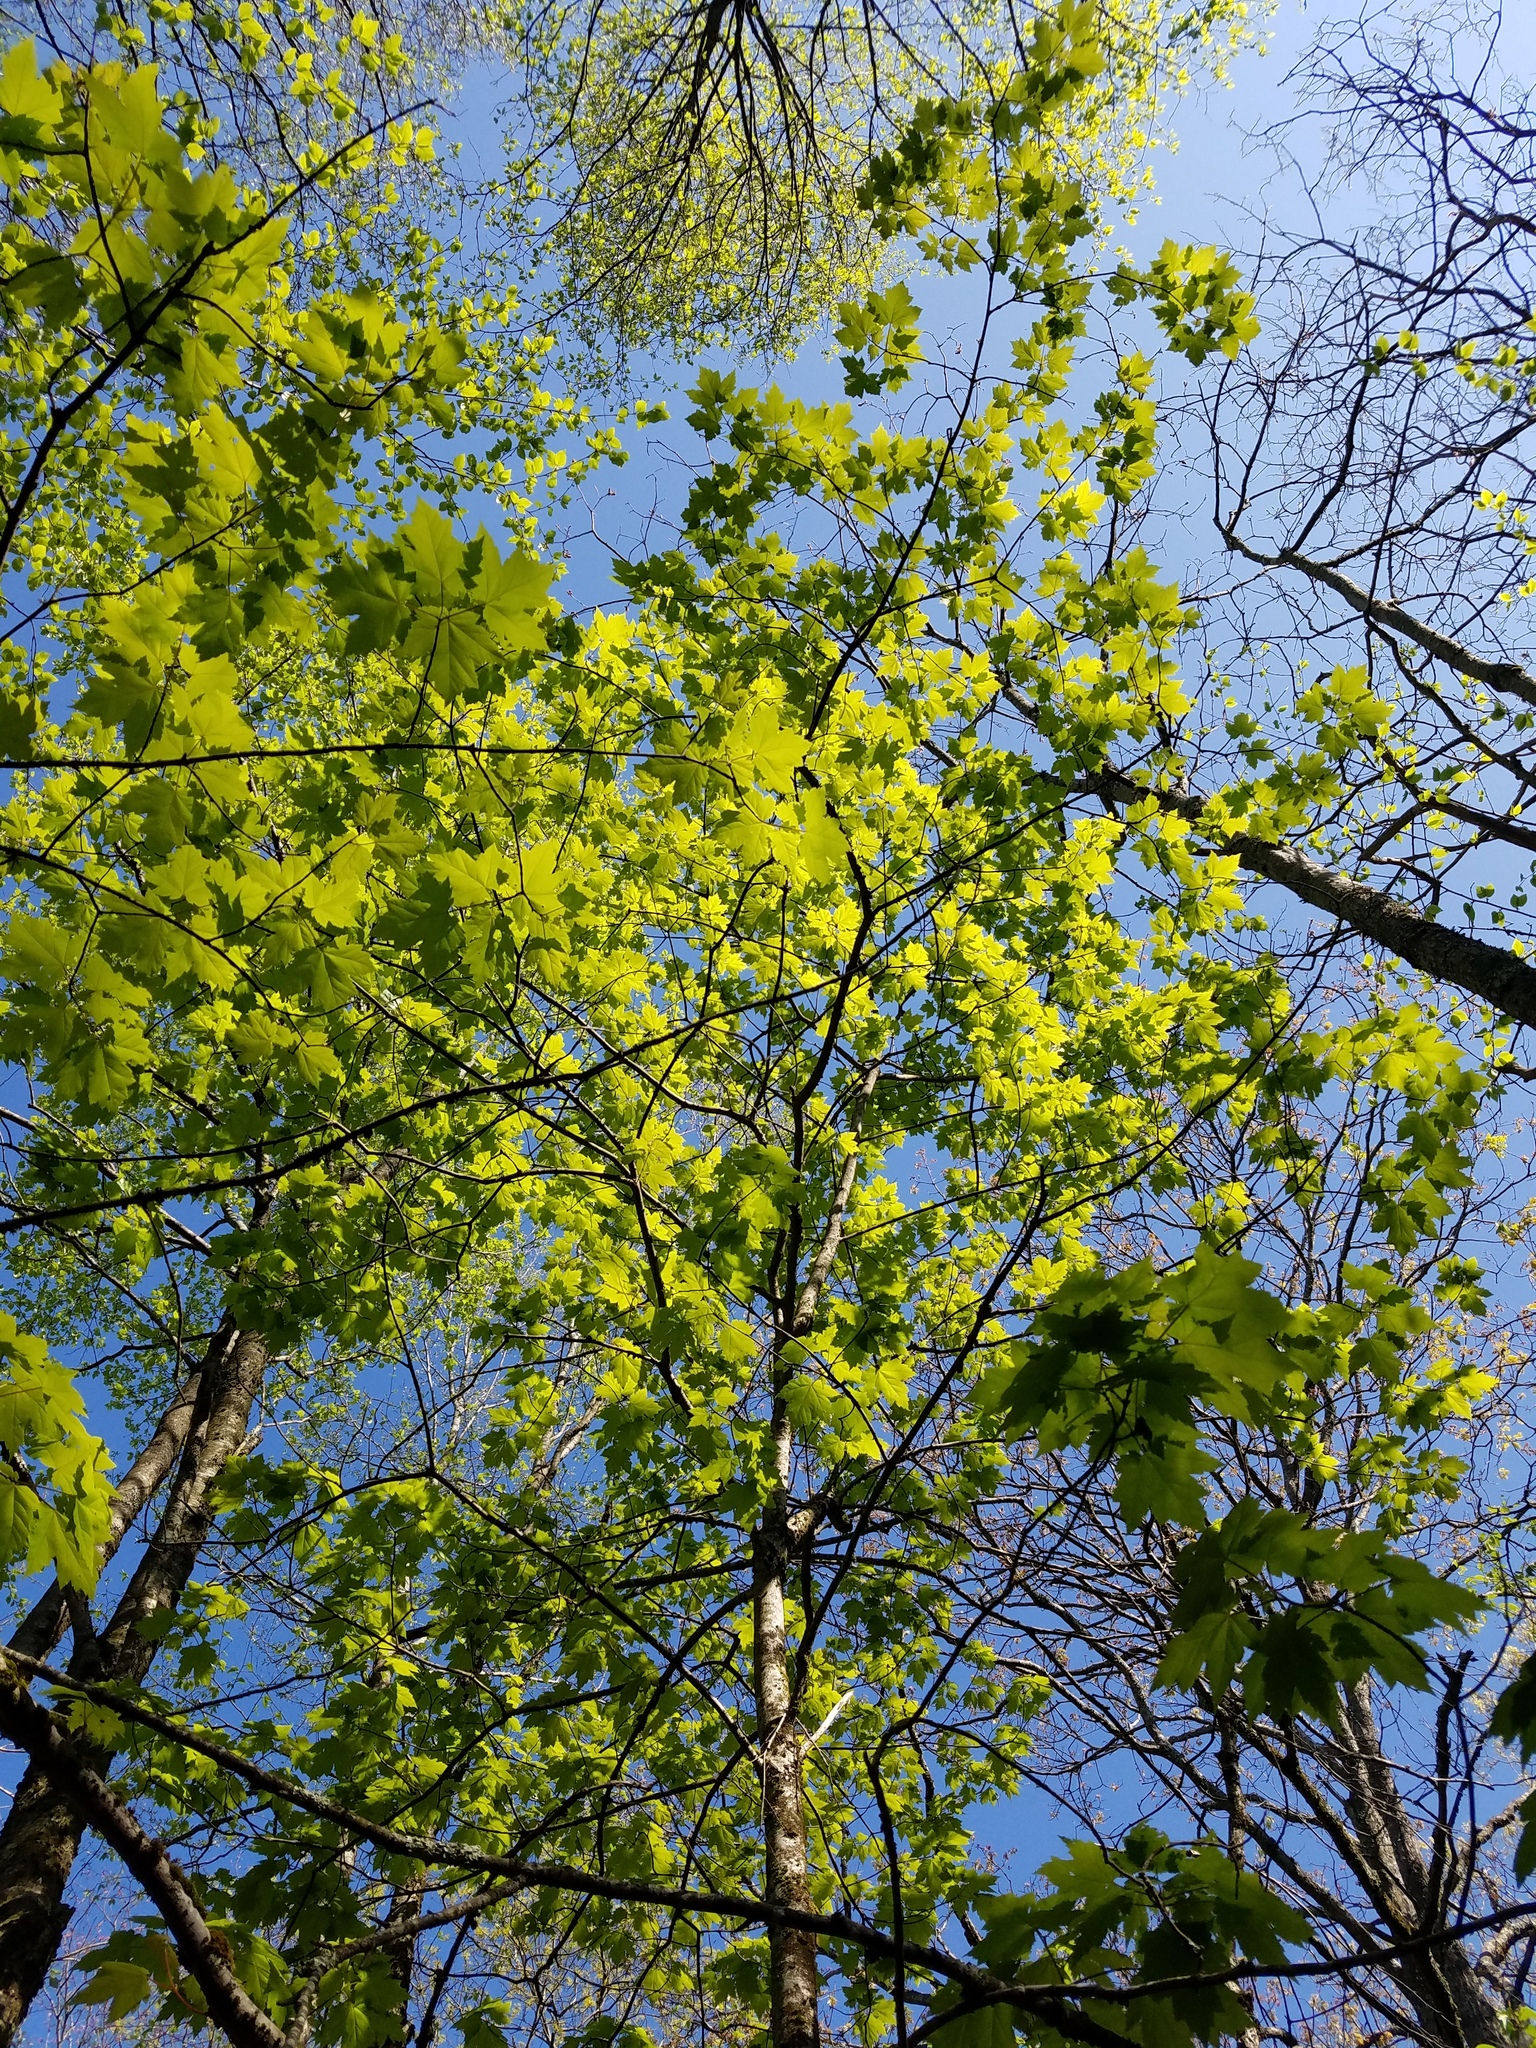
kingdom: Plantae
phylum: Tracheophyta
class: Magnoliopsida
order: Sapindales
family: Sapindaceae
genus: Acer
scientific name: Acer rubrum
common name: Red maple
